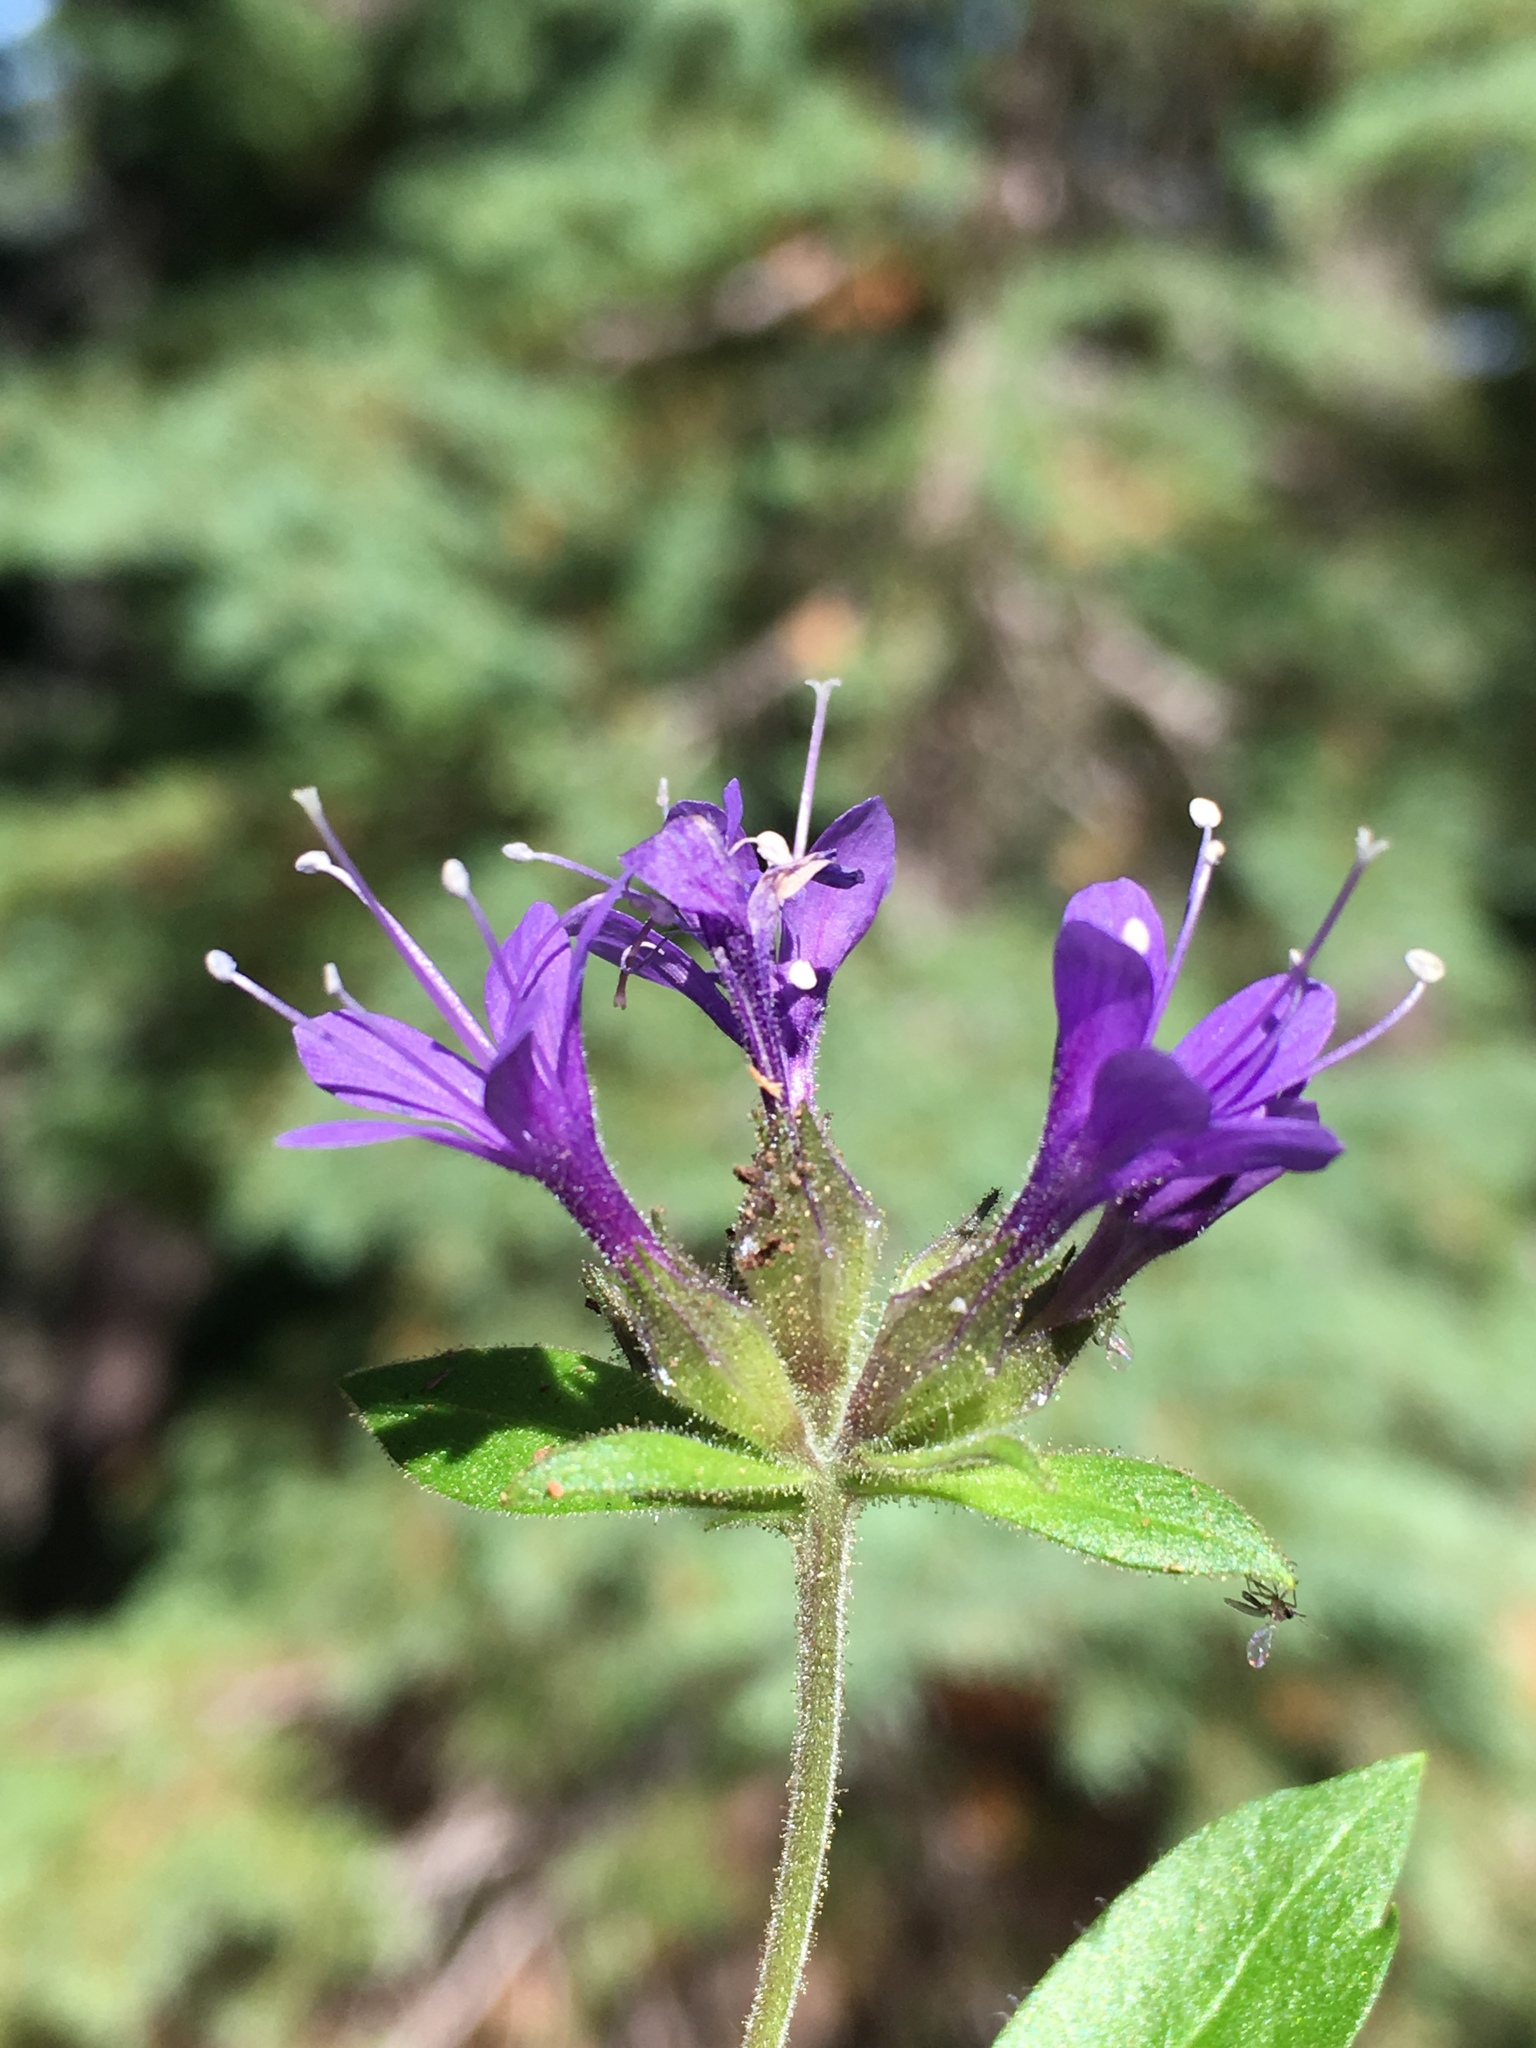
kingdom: Plantae
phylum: Tracheophyta
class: Magnoliopsida
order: Ericales
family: Polemoniaceae
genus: Collomia
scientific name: Collomia mazama
